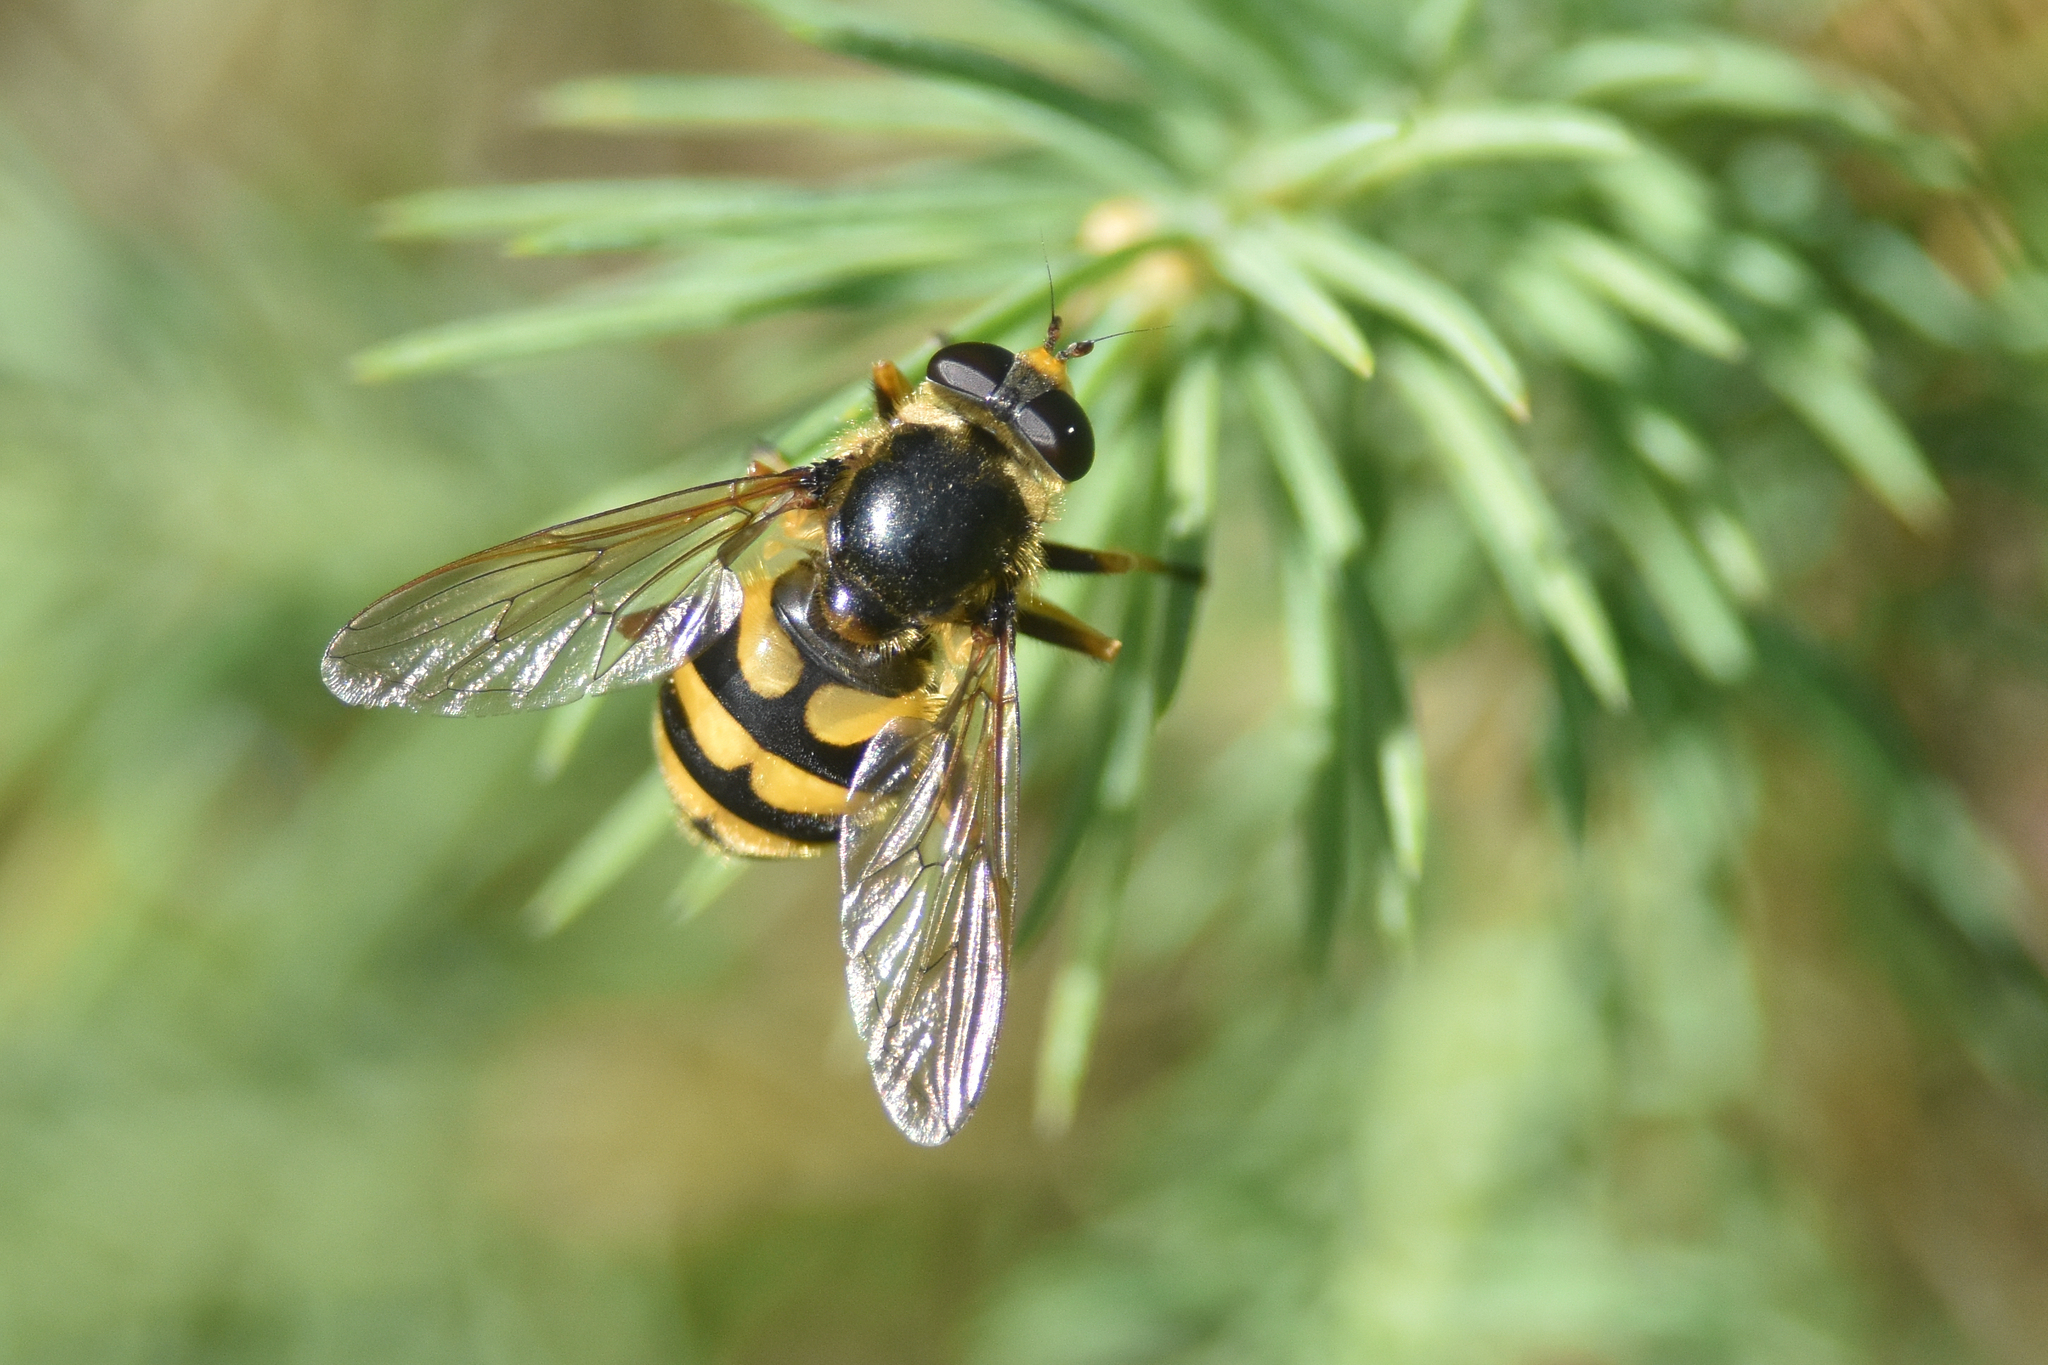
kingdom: Animalia
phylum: Arthropoda
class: Insecta
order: Diptera
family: Syrphidae
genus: Blera
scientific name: Blera scitula
